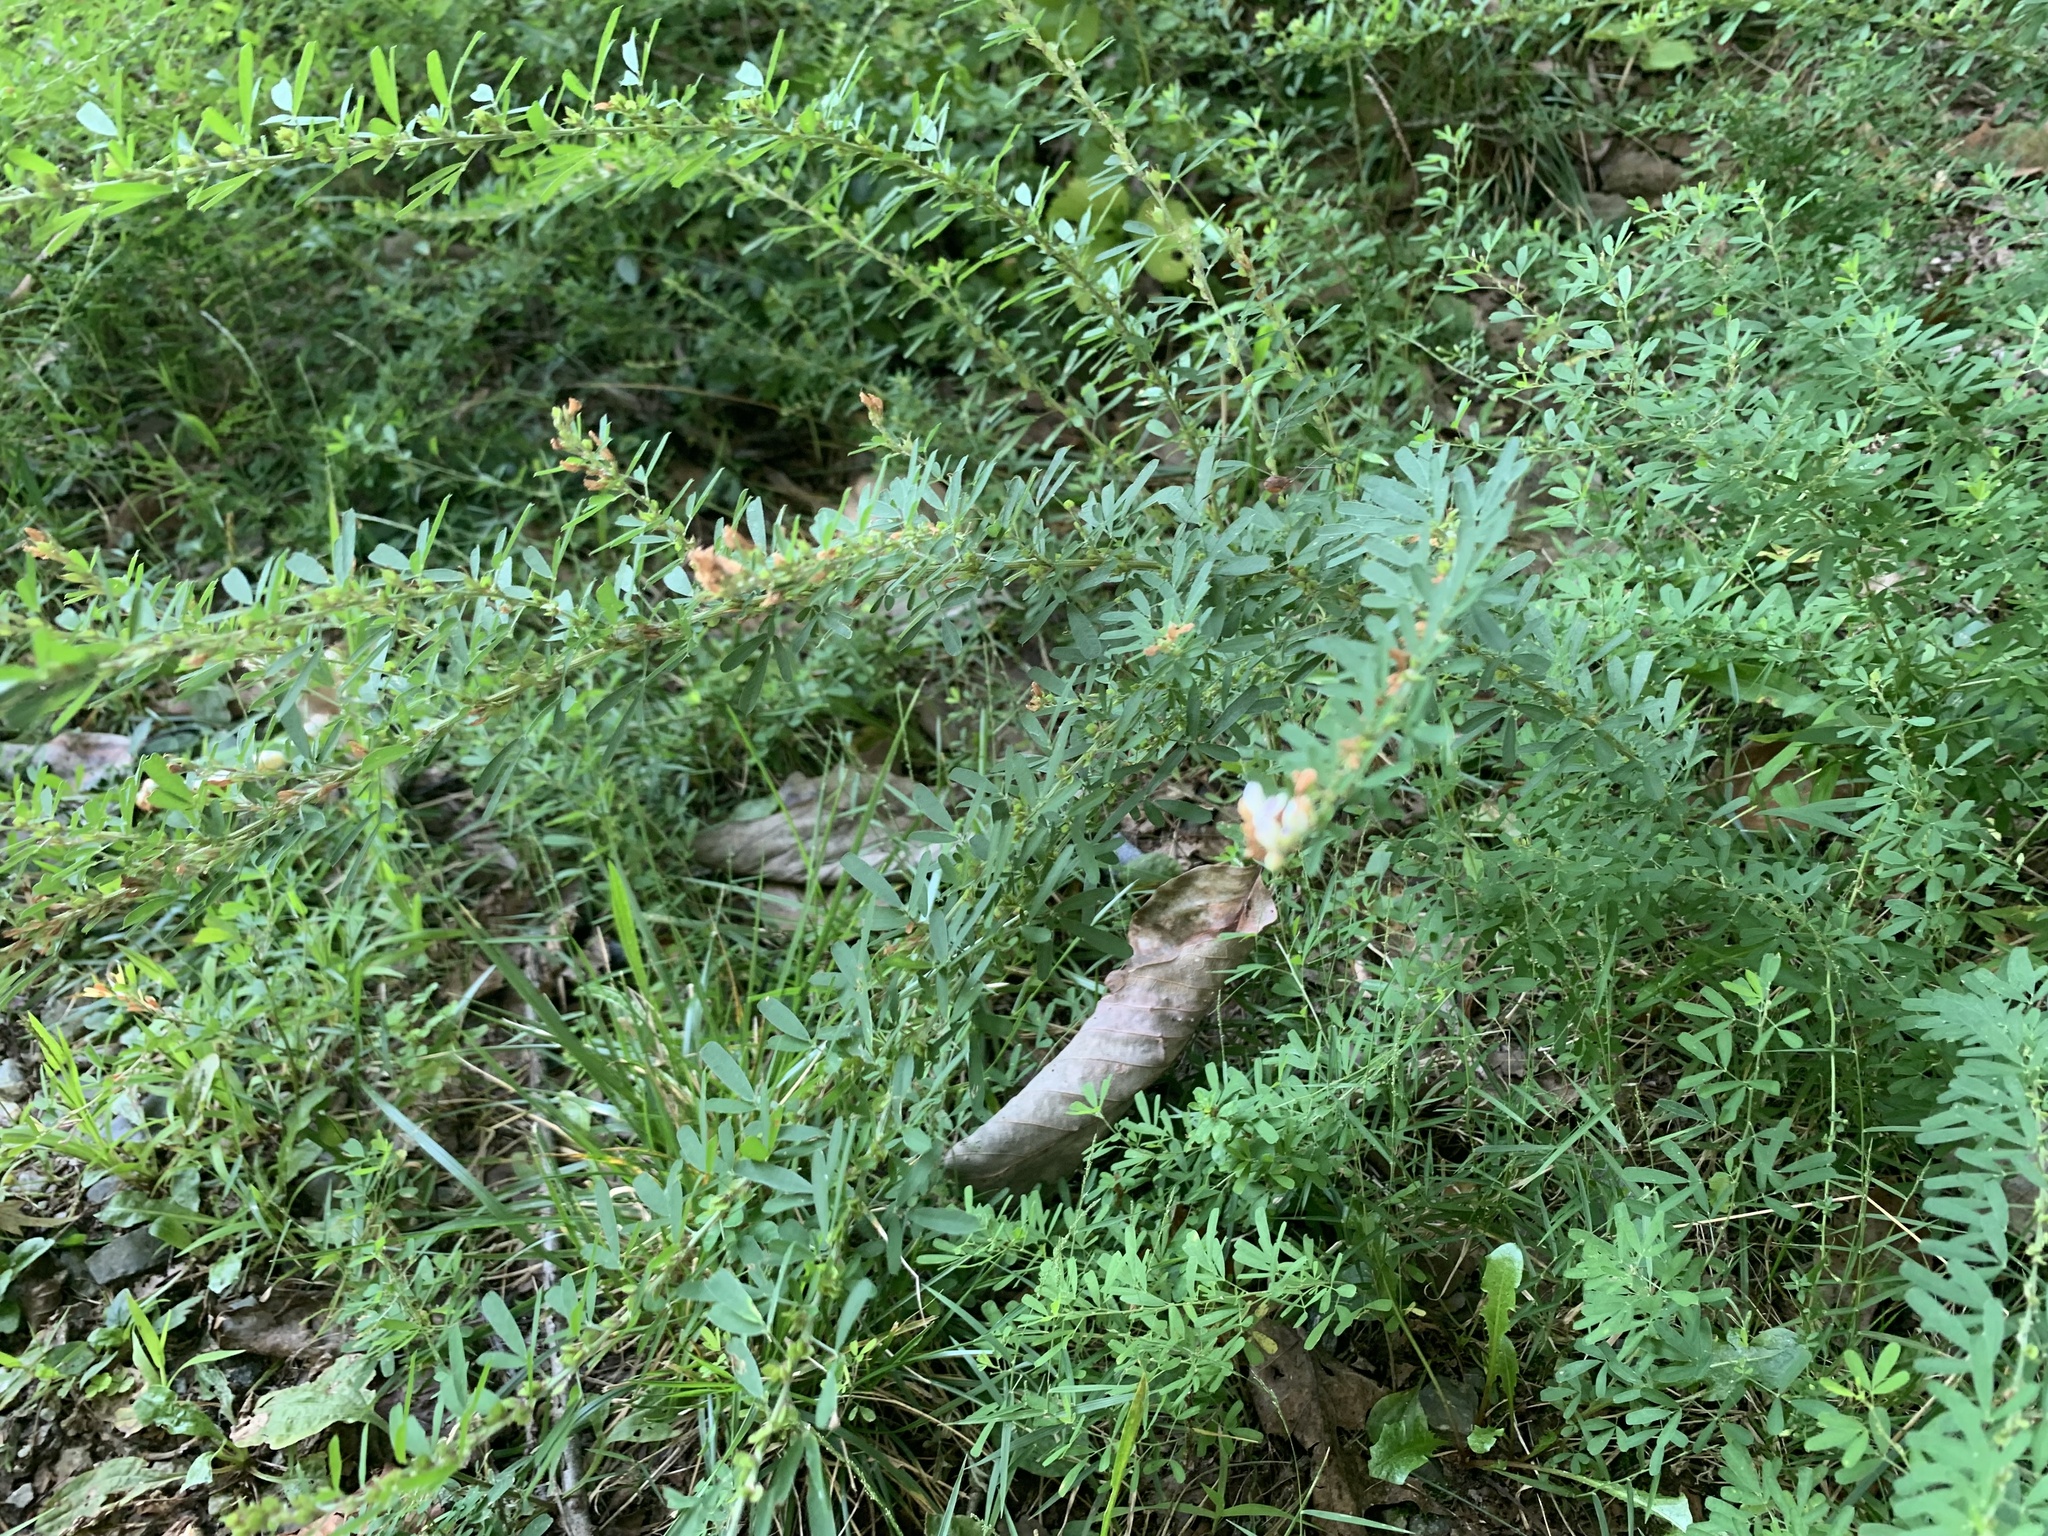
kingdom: Plantae
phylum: Tracheophyta
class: Magnoliopsida
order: Fabales
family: Fabaceae
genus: Lespedeza
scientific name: Lespedeza cuneata
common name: Chinese bush-clover
